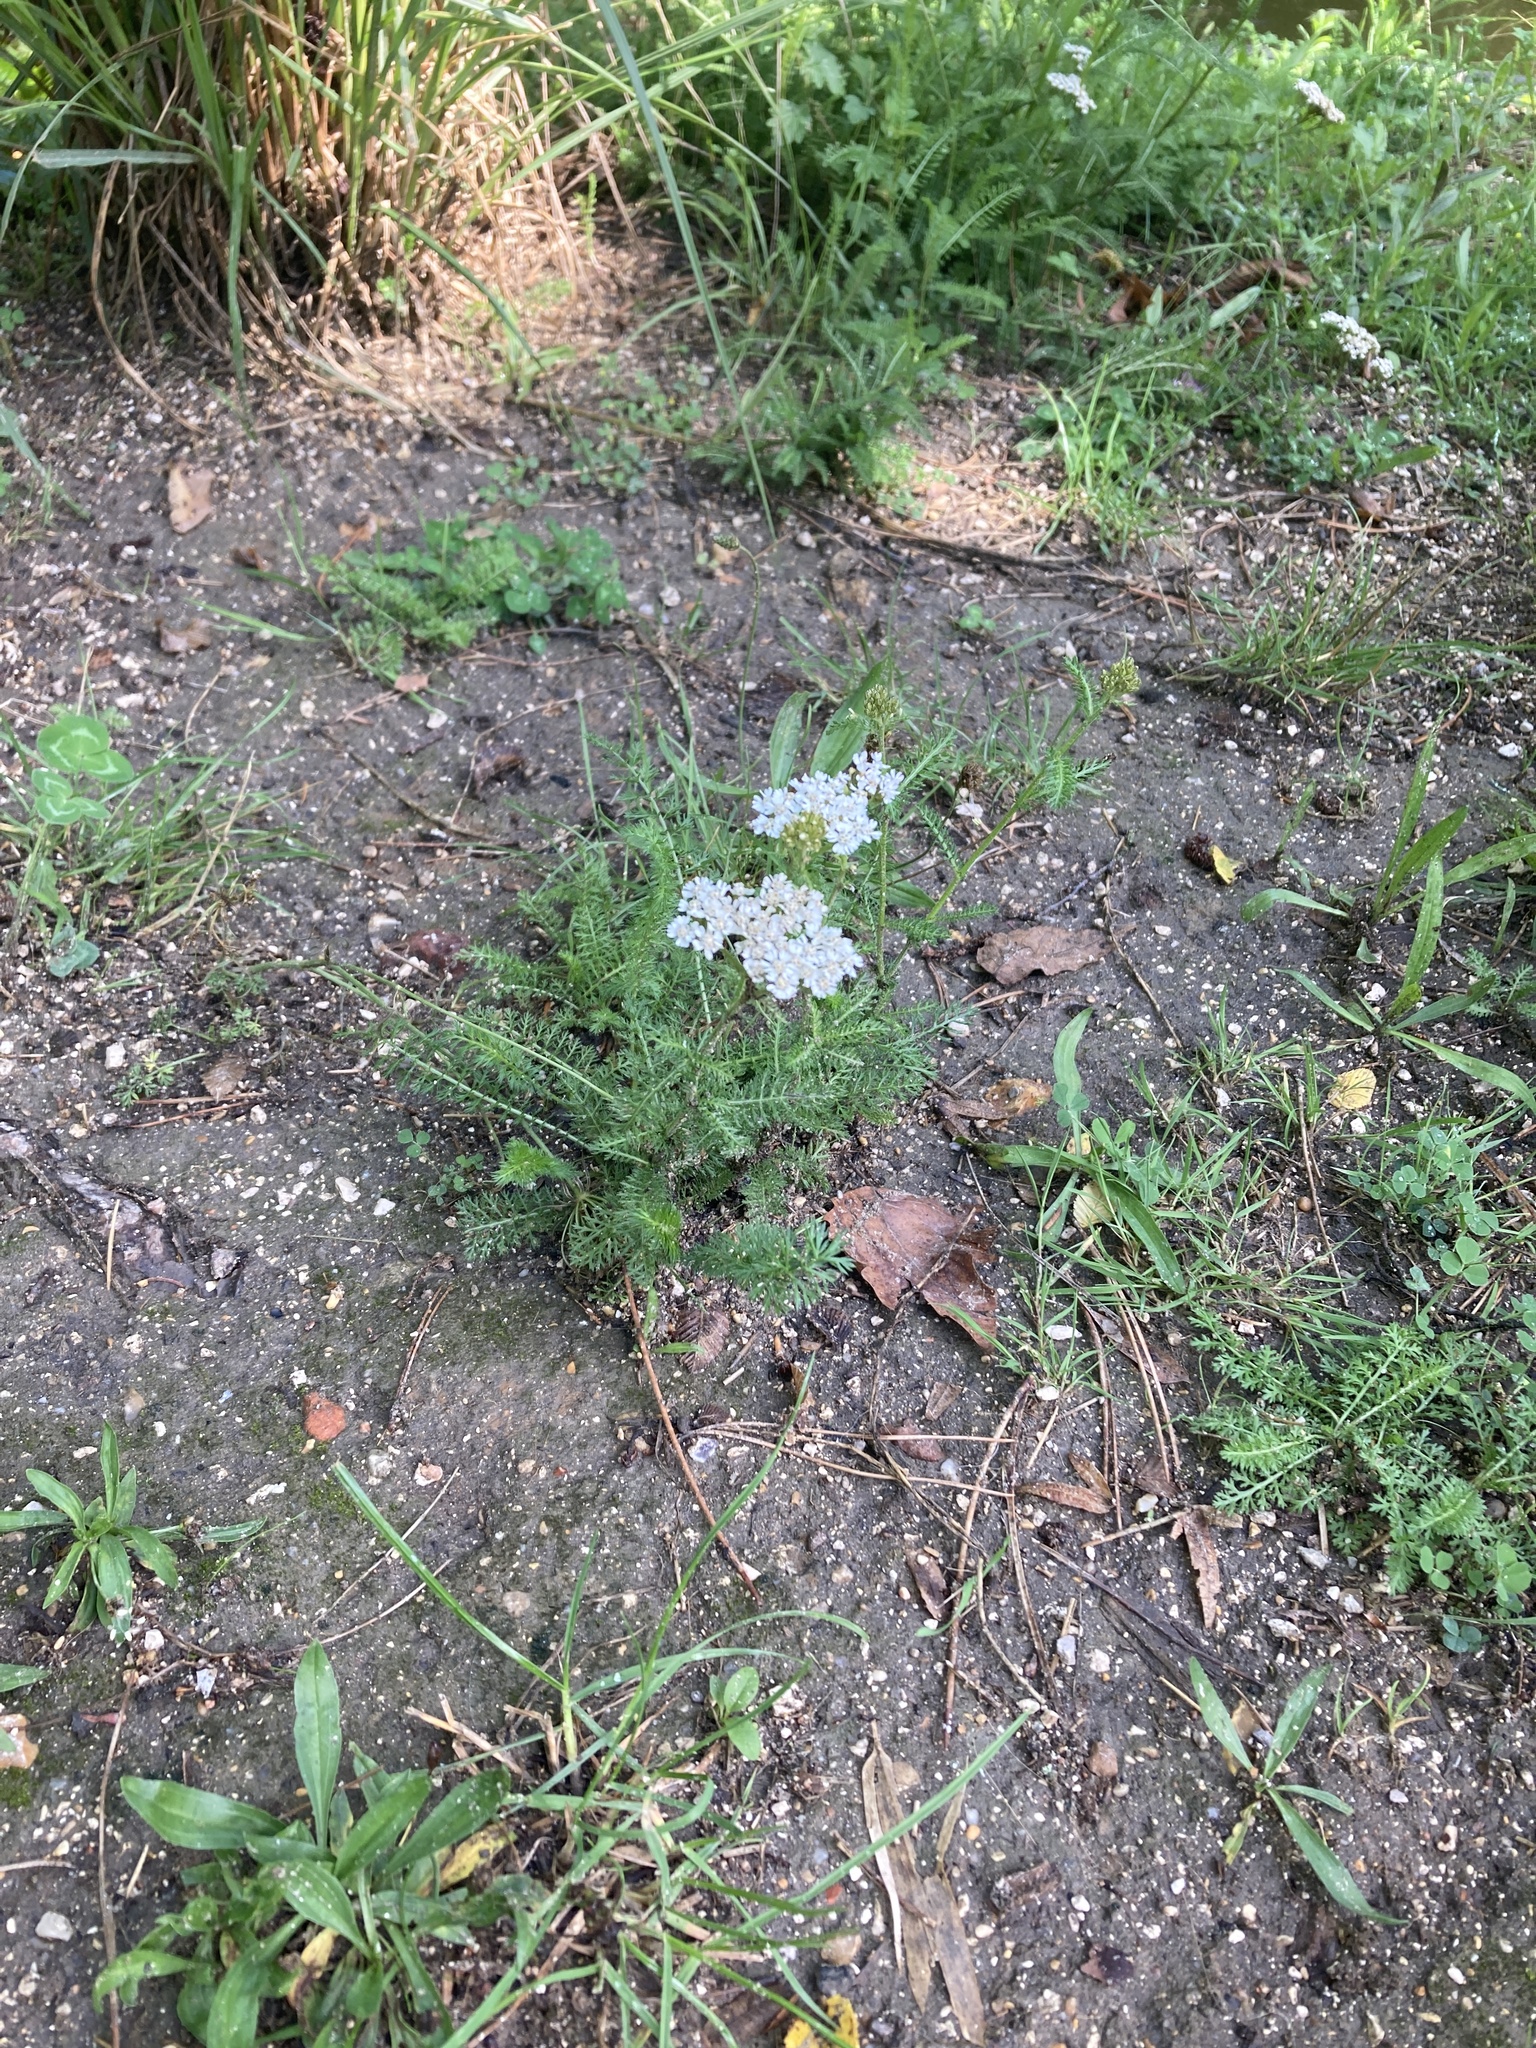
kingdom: Plantae
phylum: Tracheophyta
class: Magnoliopsida
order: Asterales
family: Asteraceae
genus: Achillea
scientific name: Achillea millefolium
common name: Yarrow
